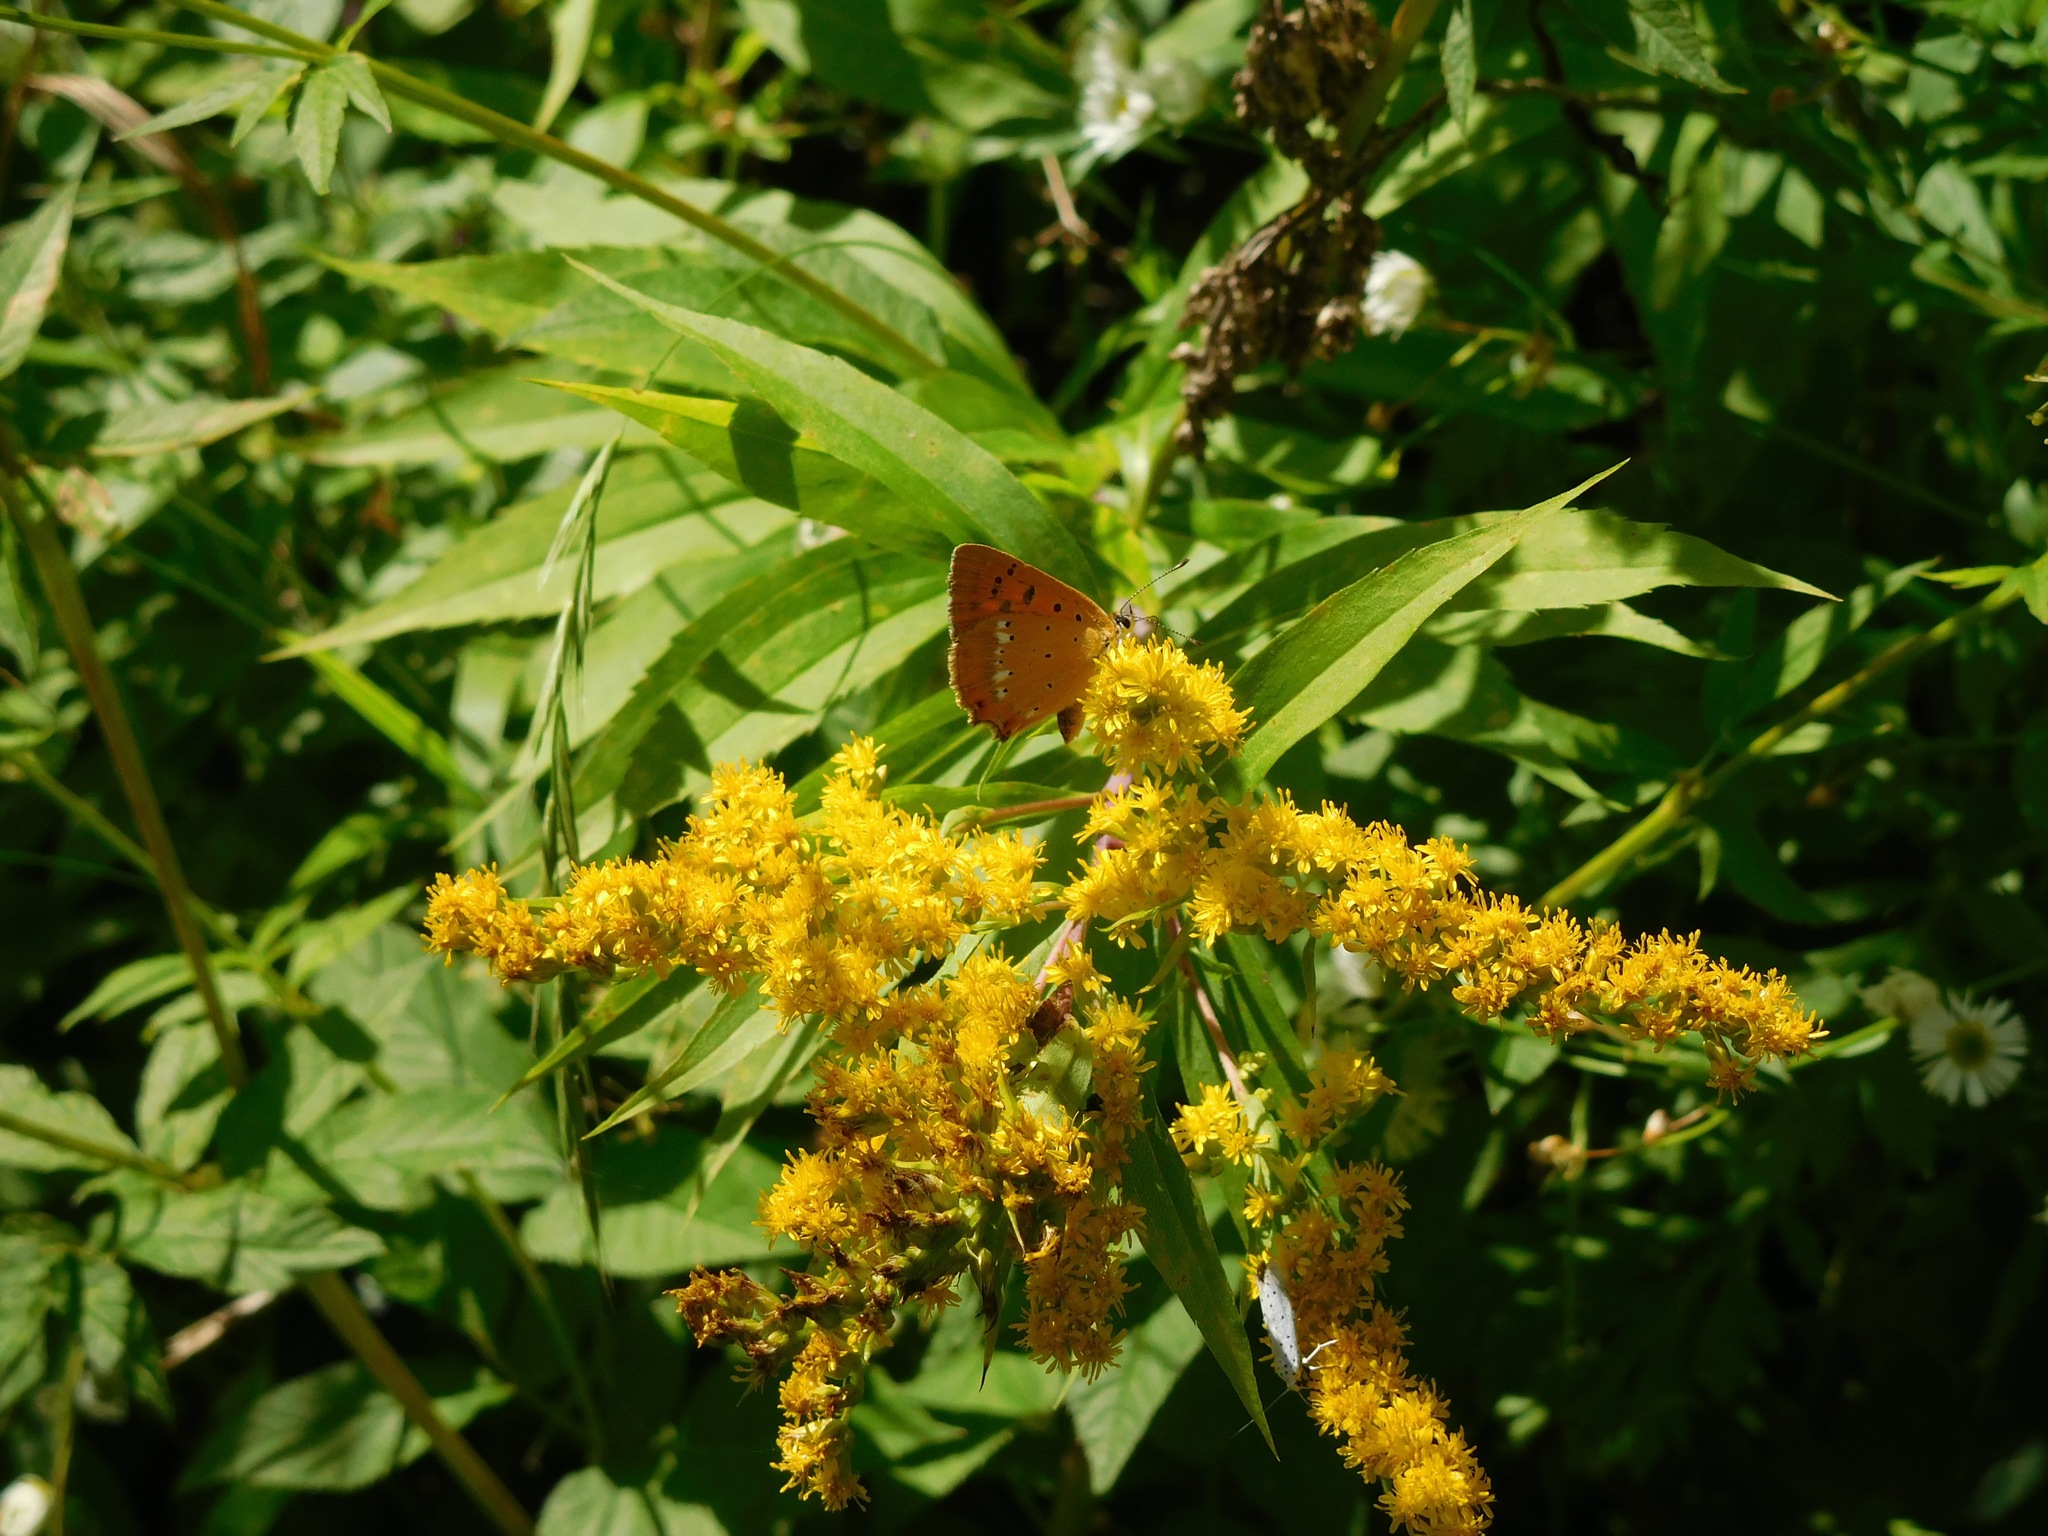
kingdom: Animalia
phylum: Arthropoda
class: Insecta
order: Lepidoptera
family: Lycaenidae
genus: Lycaena
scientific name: Lycaena virgaureae
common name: Scarce copper
